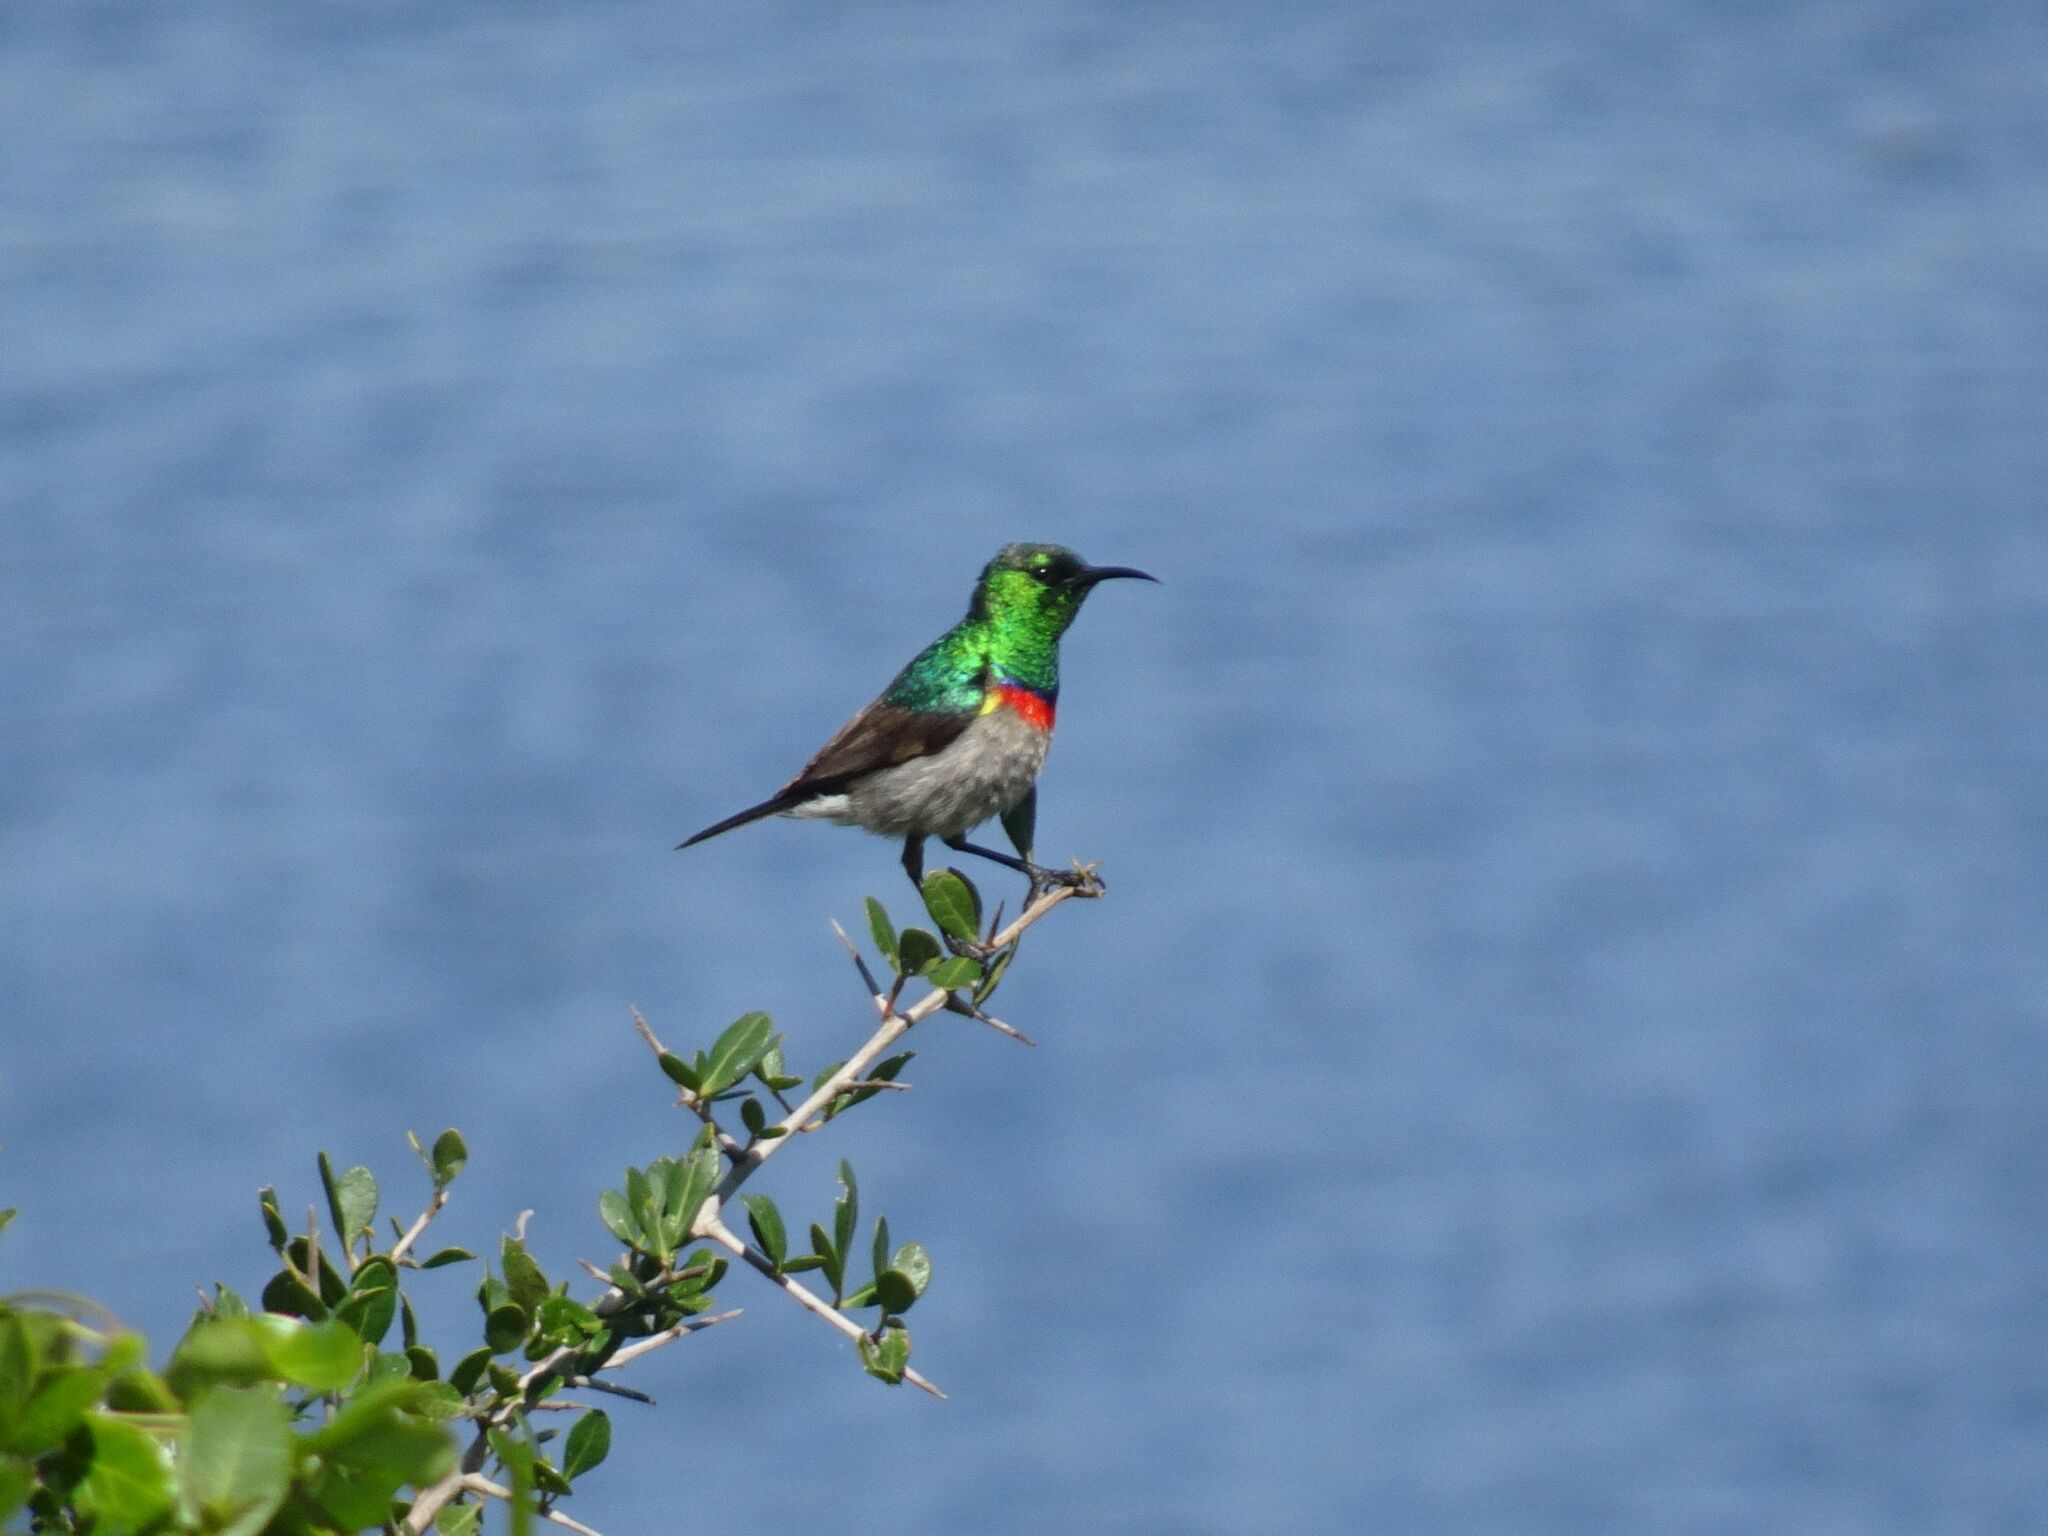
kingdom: Animalia
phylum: Chordata
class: Aves
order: Passeriformes
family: Nectariniidae
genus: Cinnyris
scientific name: Cinnyris chalybeus
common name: Southern double-collared sunbird
